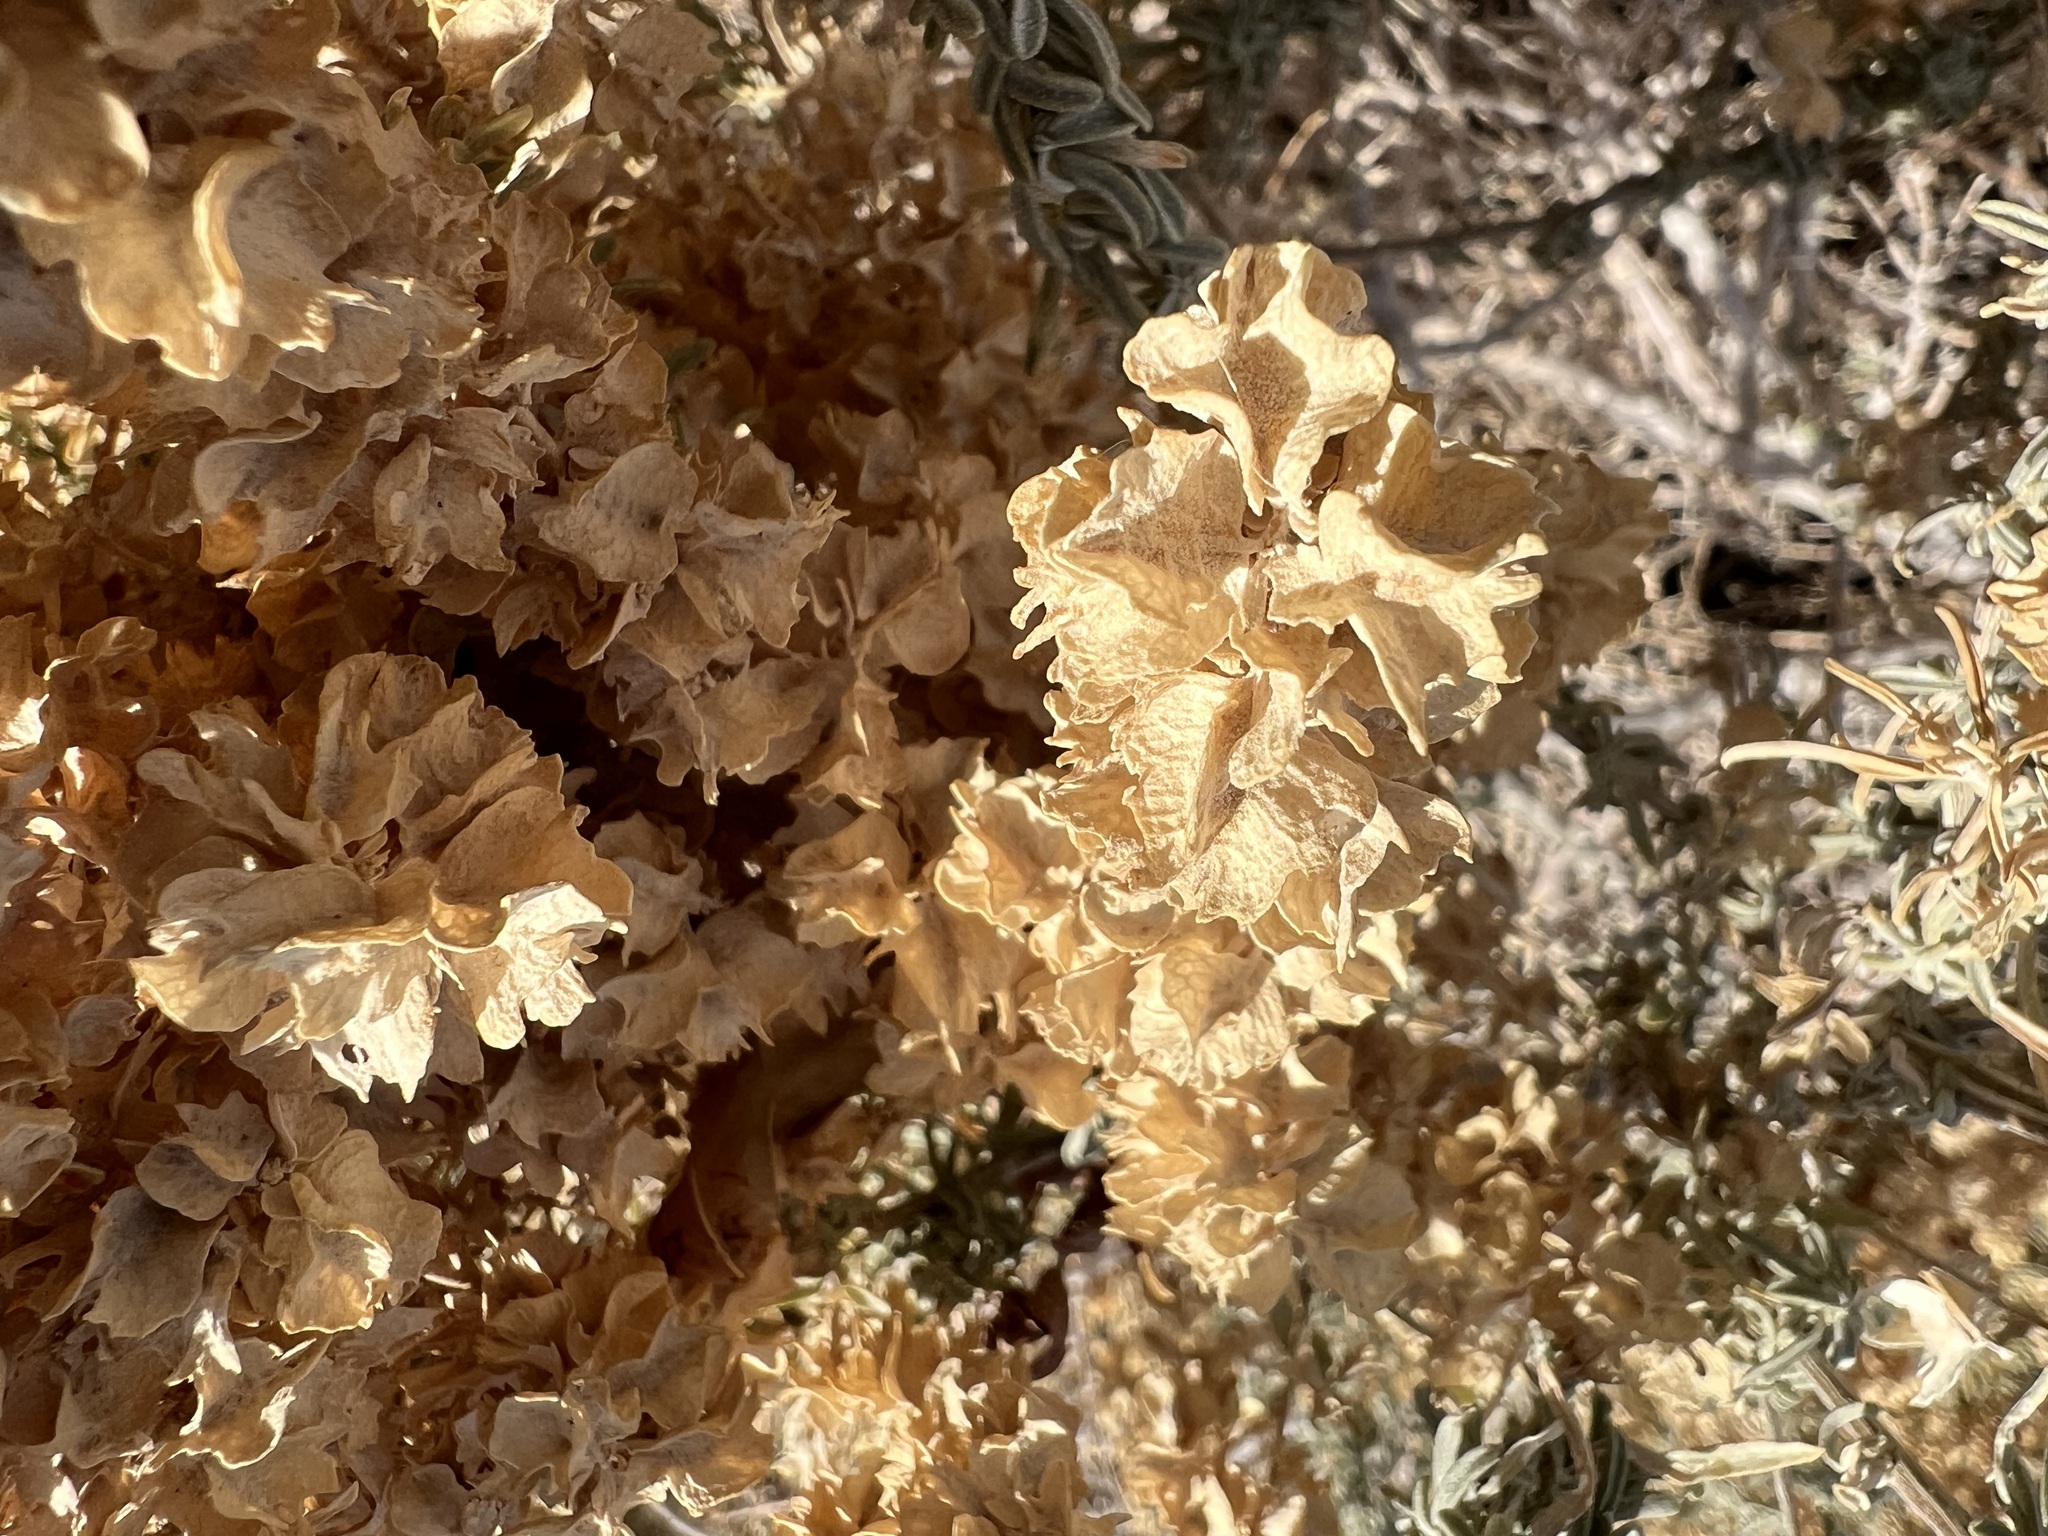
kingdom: Plantae
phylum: Tracheophyta
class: Magnoliopsida
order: Caryophyllales
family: Amaranthaceae
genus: Atriplex
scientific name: Atriplex canescens
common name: Four-wing saltbush
